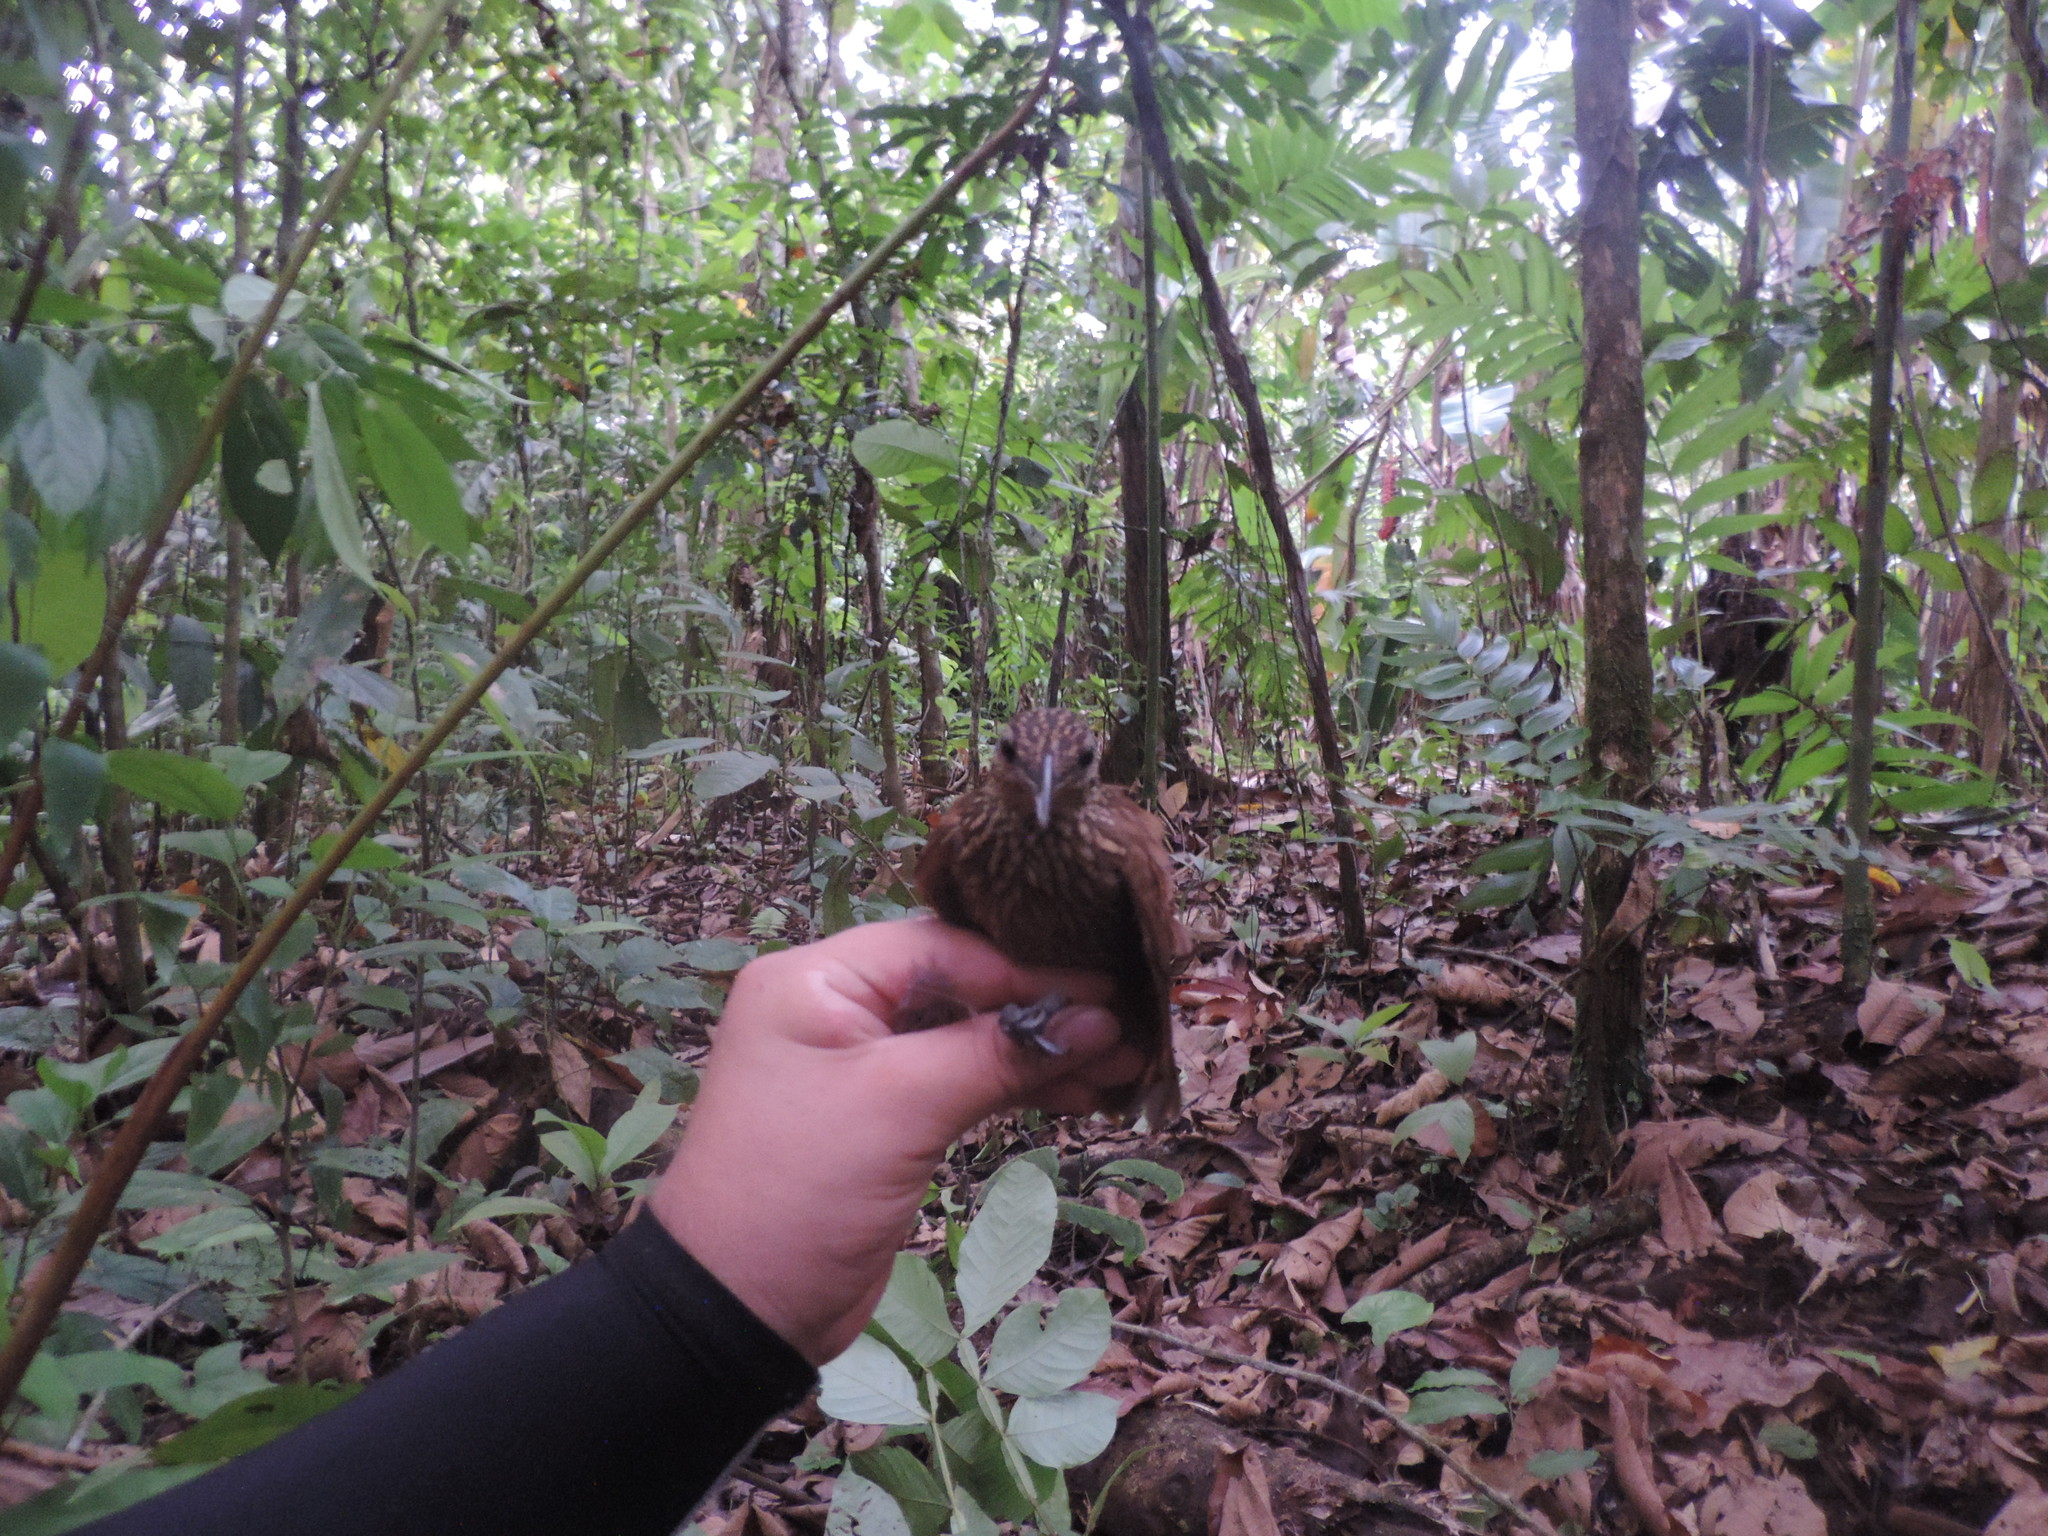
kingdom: Animalia
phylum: Chordata
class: Aves
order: Passeriformes
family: Furnariidae
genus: Xiphorhynchus
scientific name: Xiphorhynchus susurrans
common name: Cocoa woodcreeper
